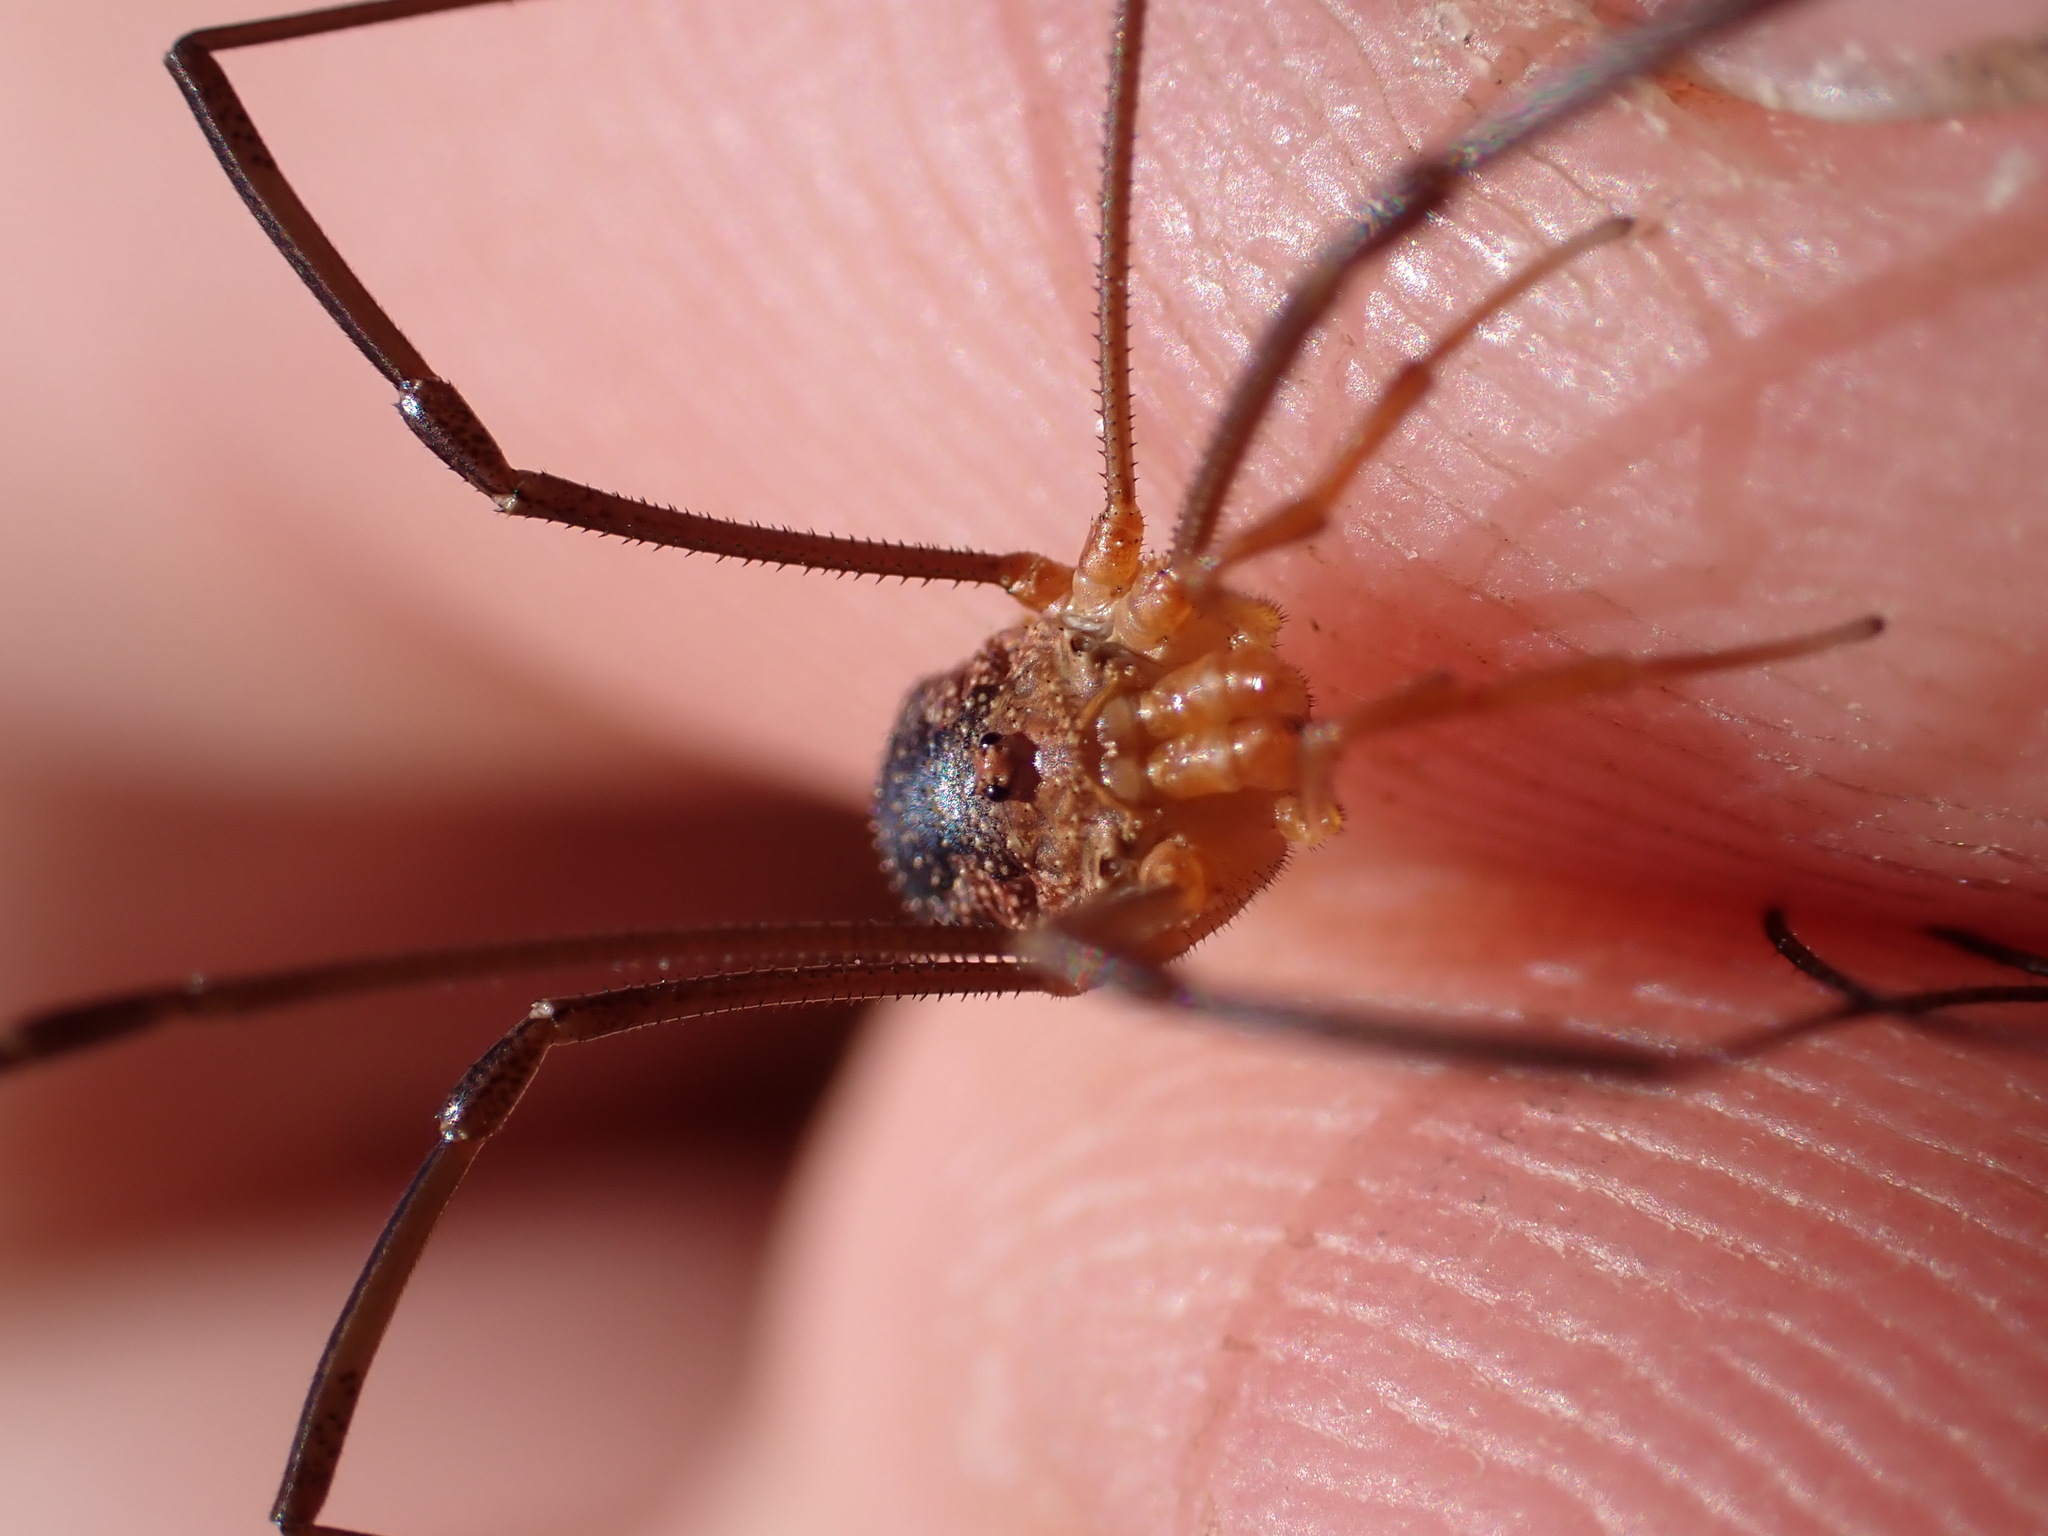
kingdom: Animalia
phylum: Arthropoda
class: Arachnida
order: Opiliones
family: Phalangiidae
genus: Phalangium
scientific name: Phalangium opilio
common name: Daddy longleg
